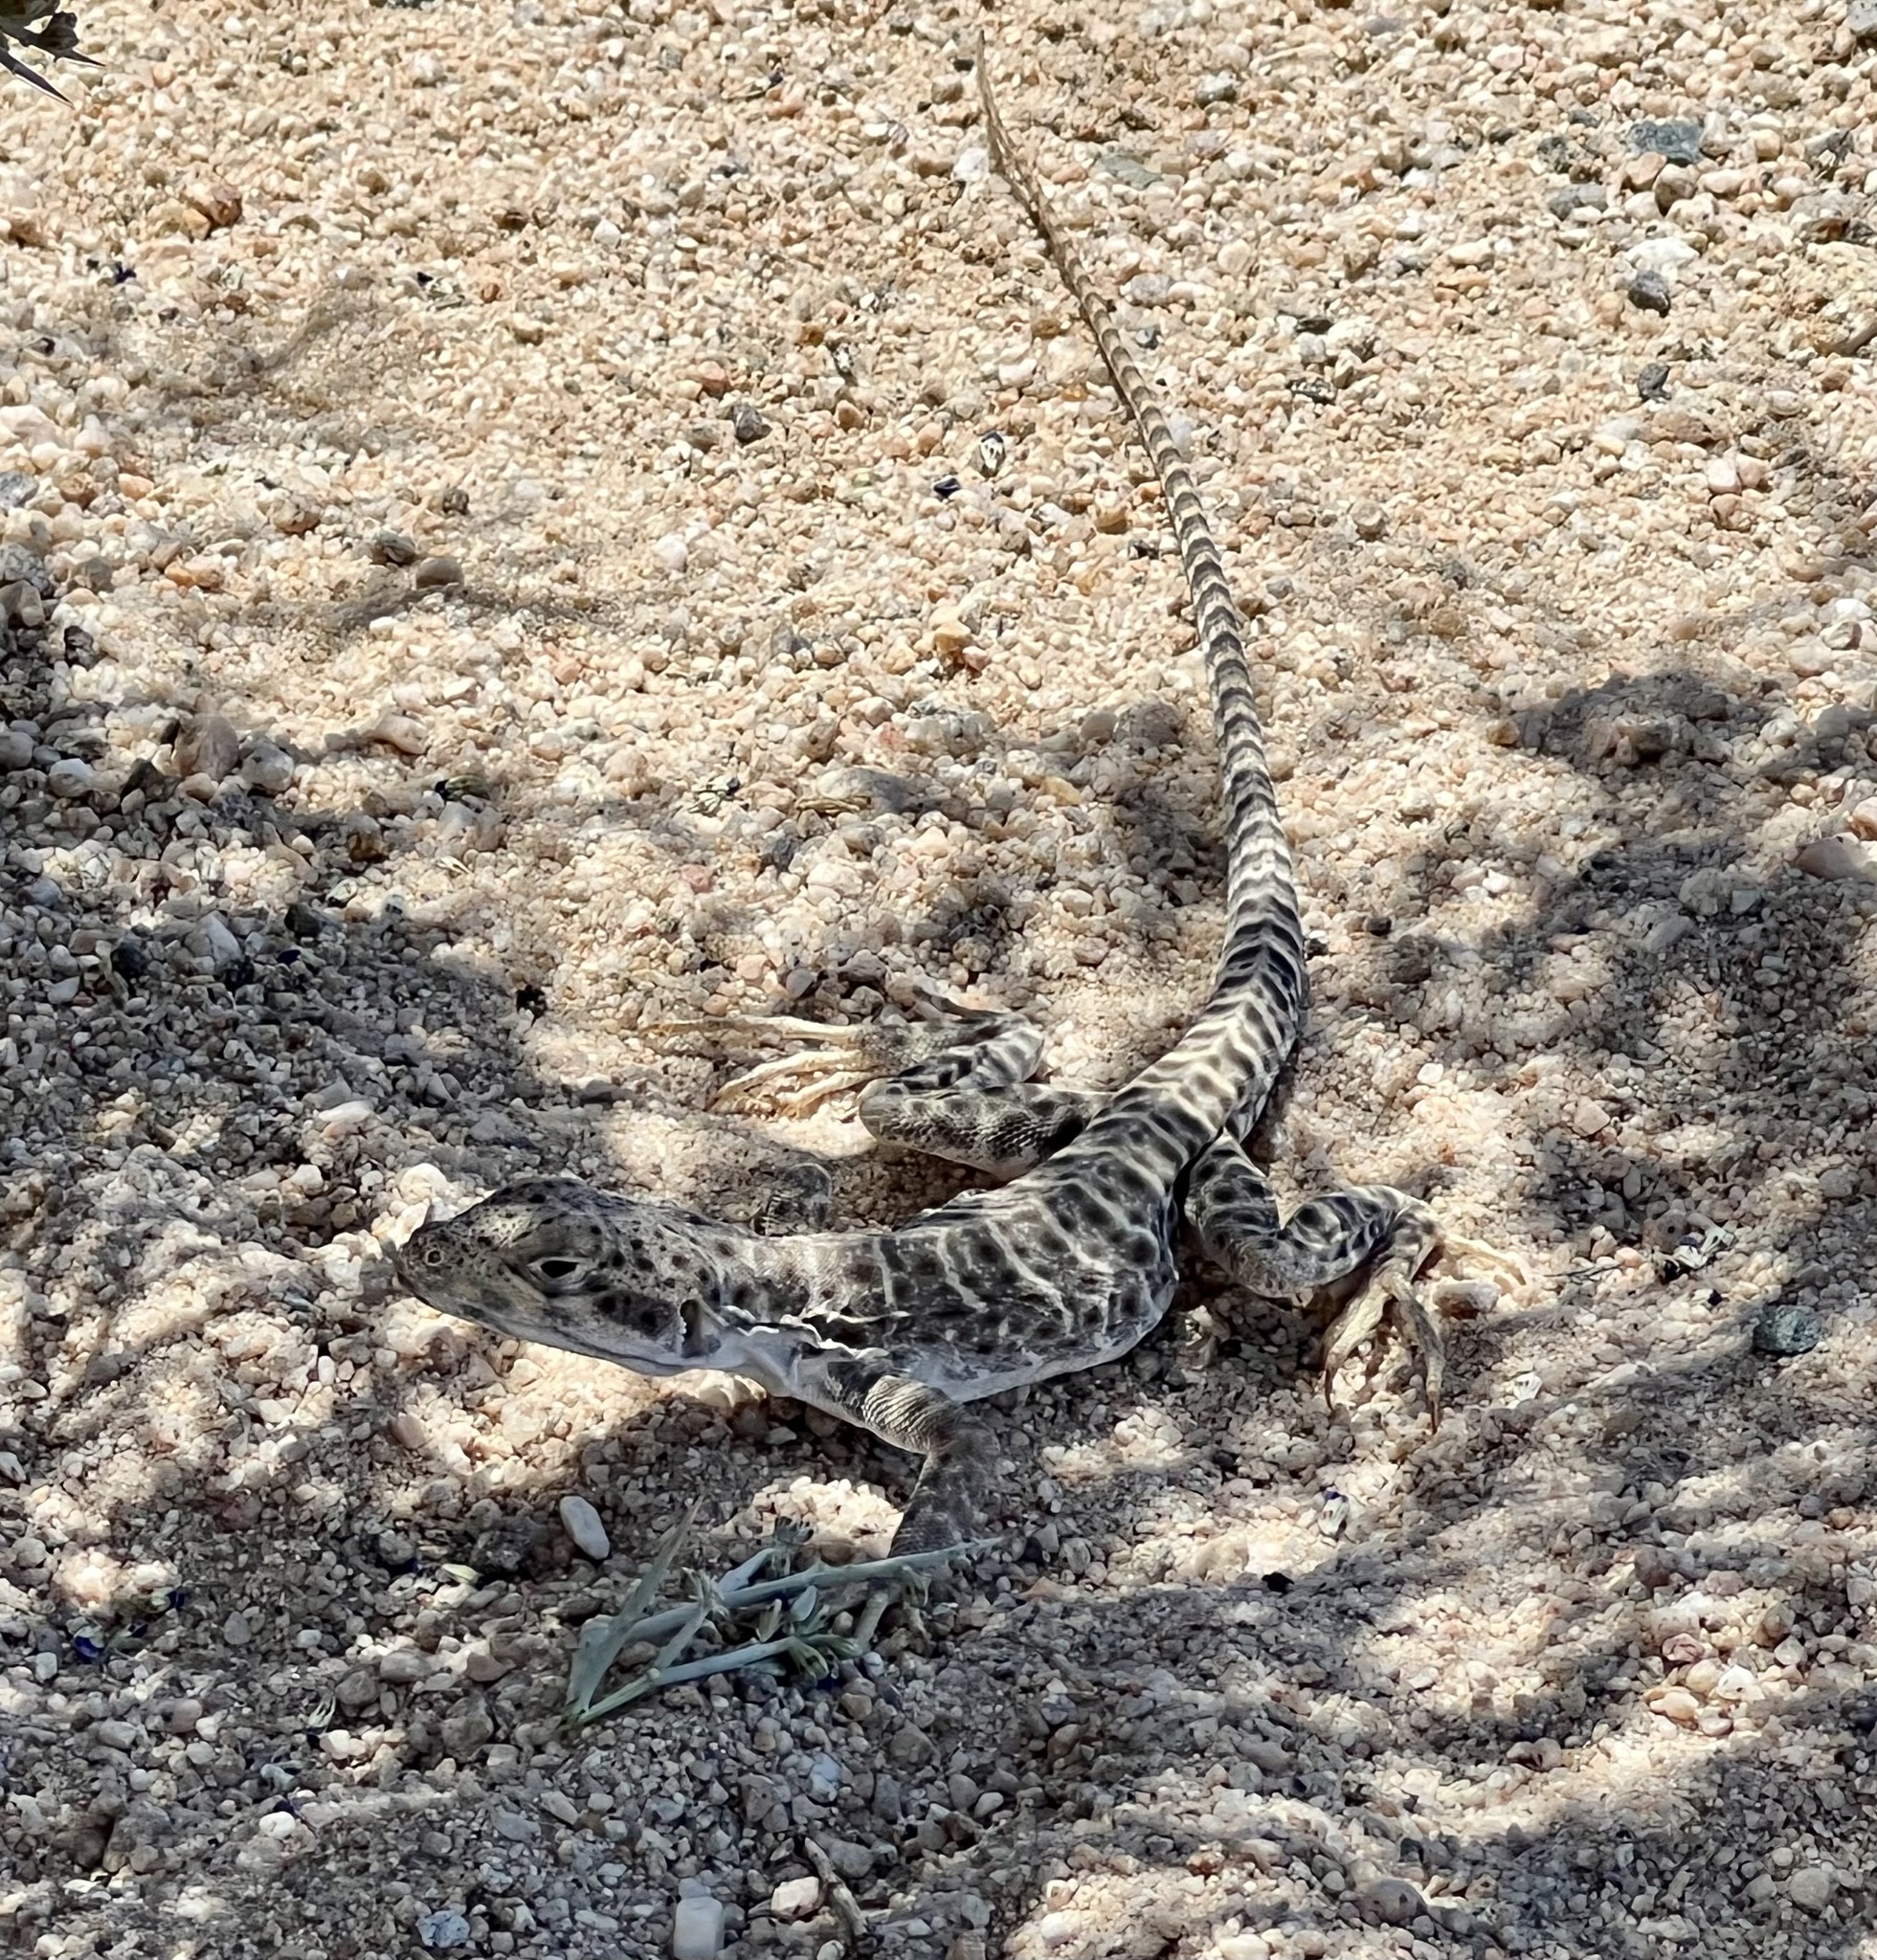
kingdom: Animalia
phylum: Chordata
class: Squamata
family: Crotaphytidae
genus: Gambelia
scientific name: Gambelia wislizenii
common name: Longnose leopard lizard
